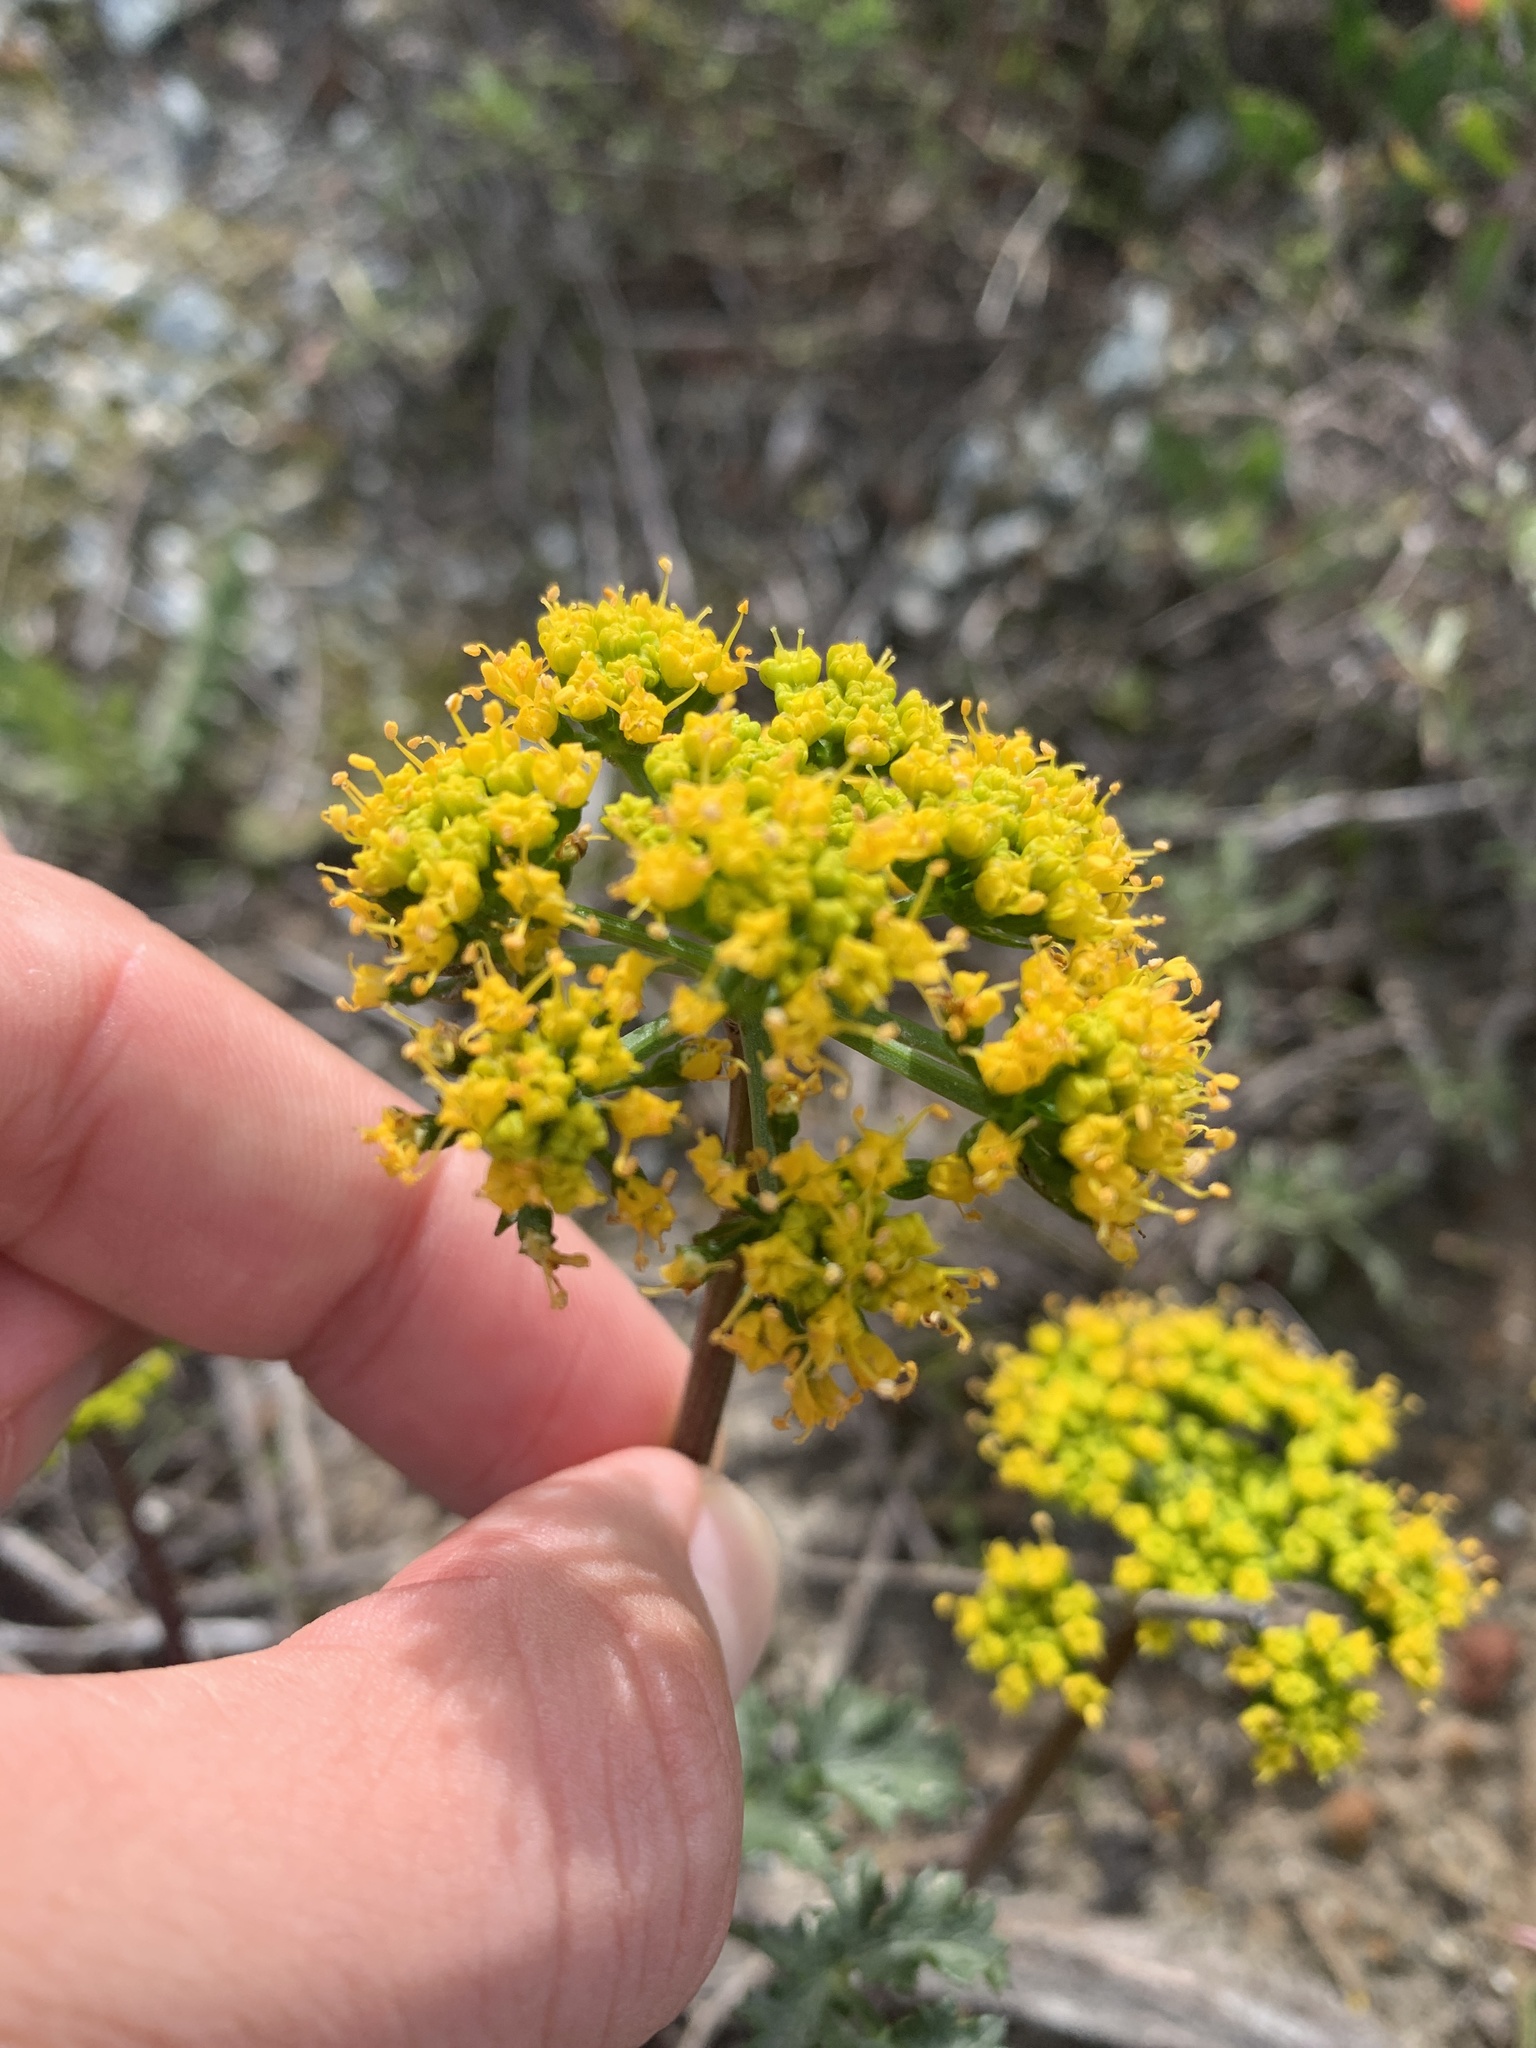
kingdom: Plantae
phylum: Tracheophyta
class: Magnoliopsida
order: Apiales
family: Apiaceae
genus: Lomatium
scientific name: Lomatium parvifolium
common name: Small-leaf lomatium
